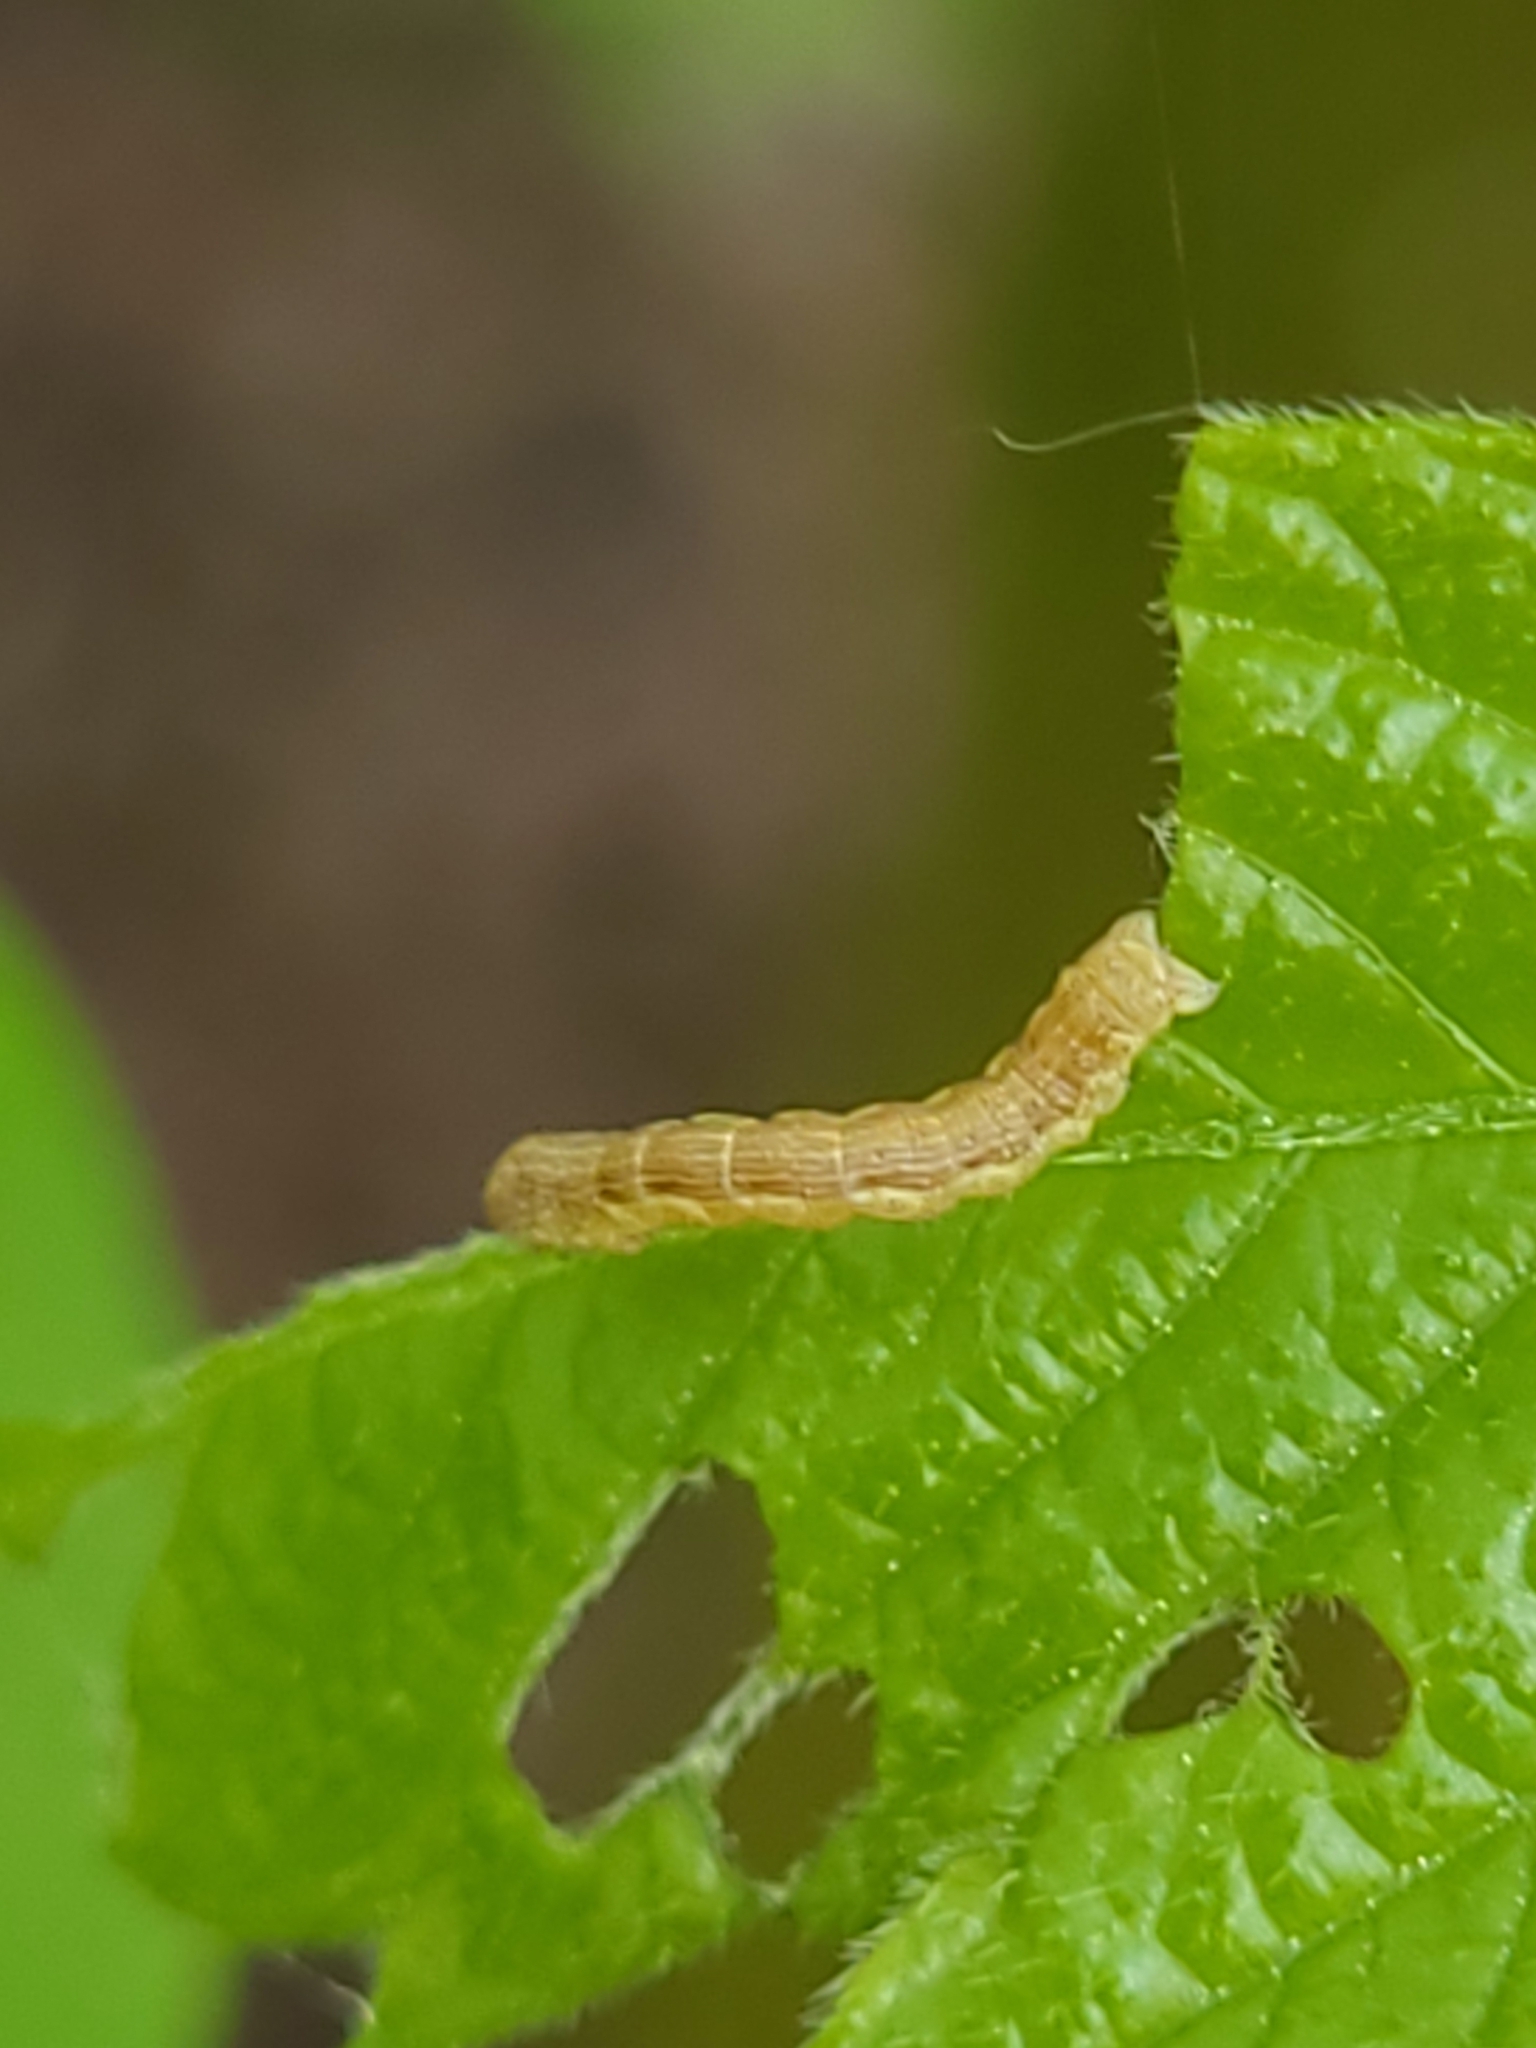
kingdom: Animalia
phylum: Arthropoda
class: Insecta
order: Lepidoptera
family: Geometridae
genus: Erannis
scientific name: Erannis defoliaria
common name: Mottled umber
